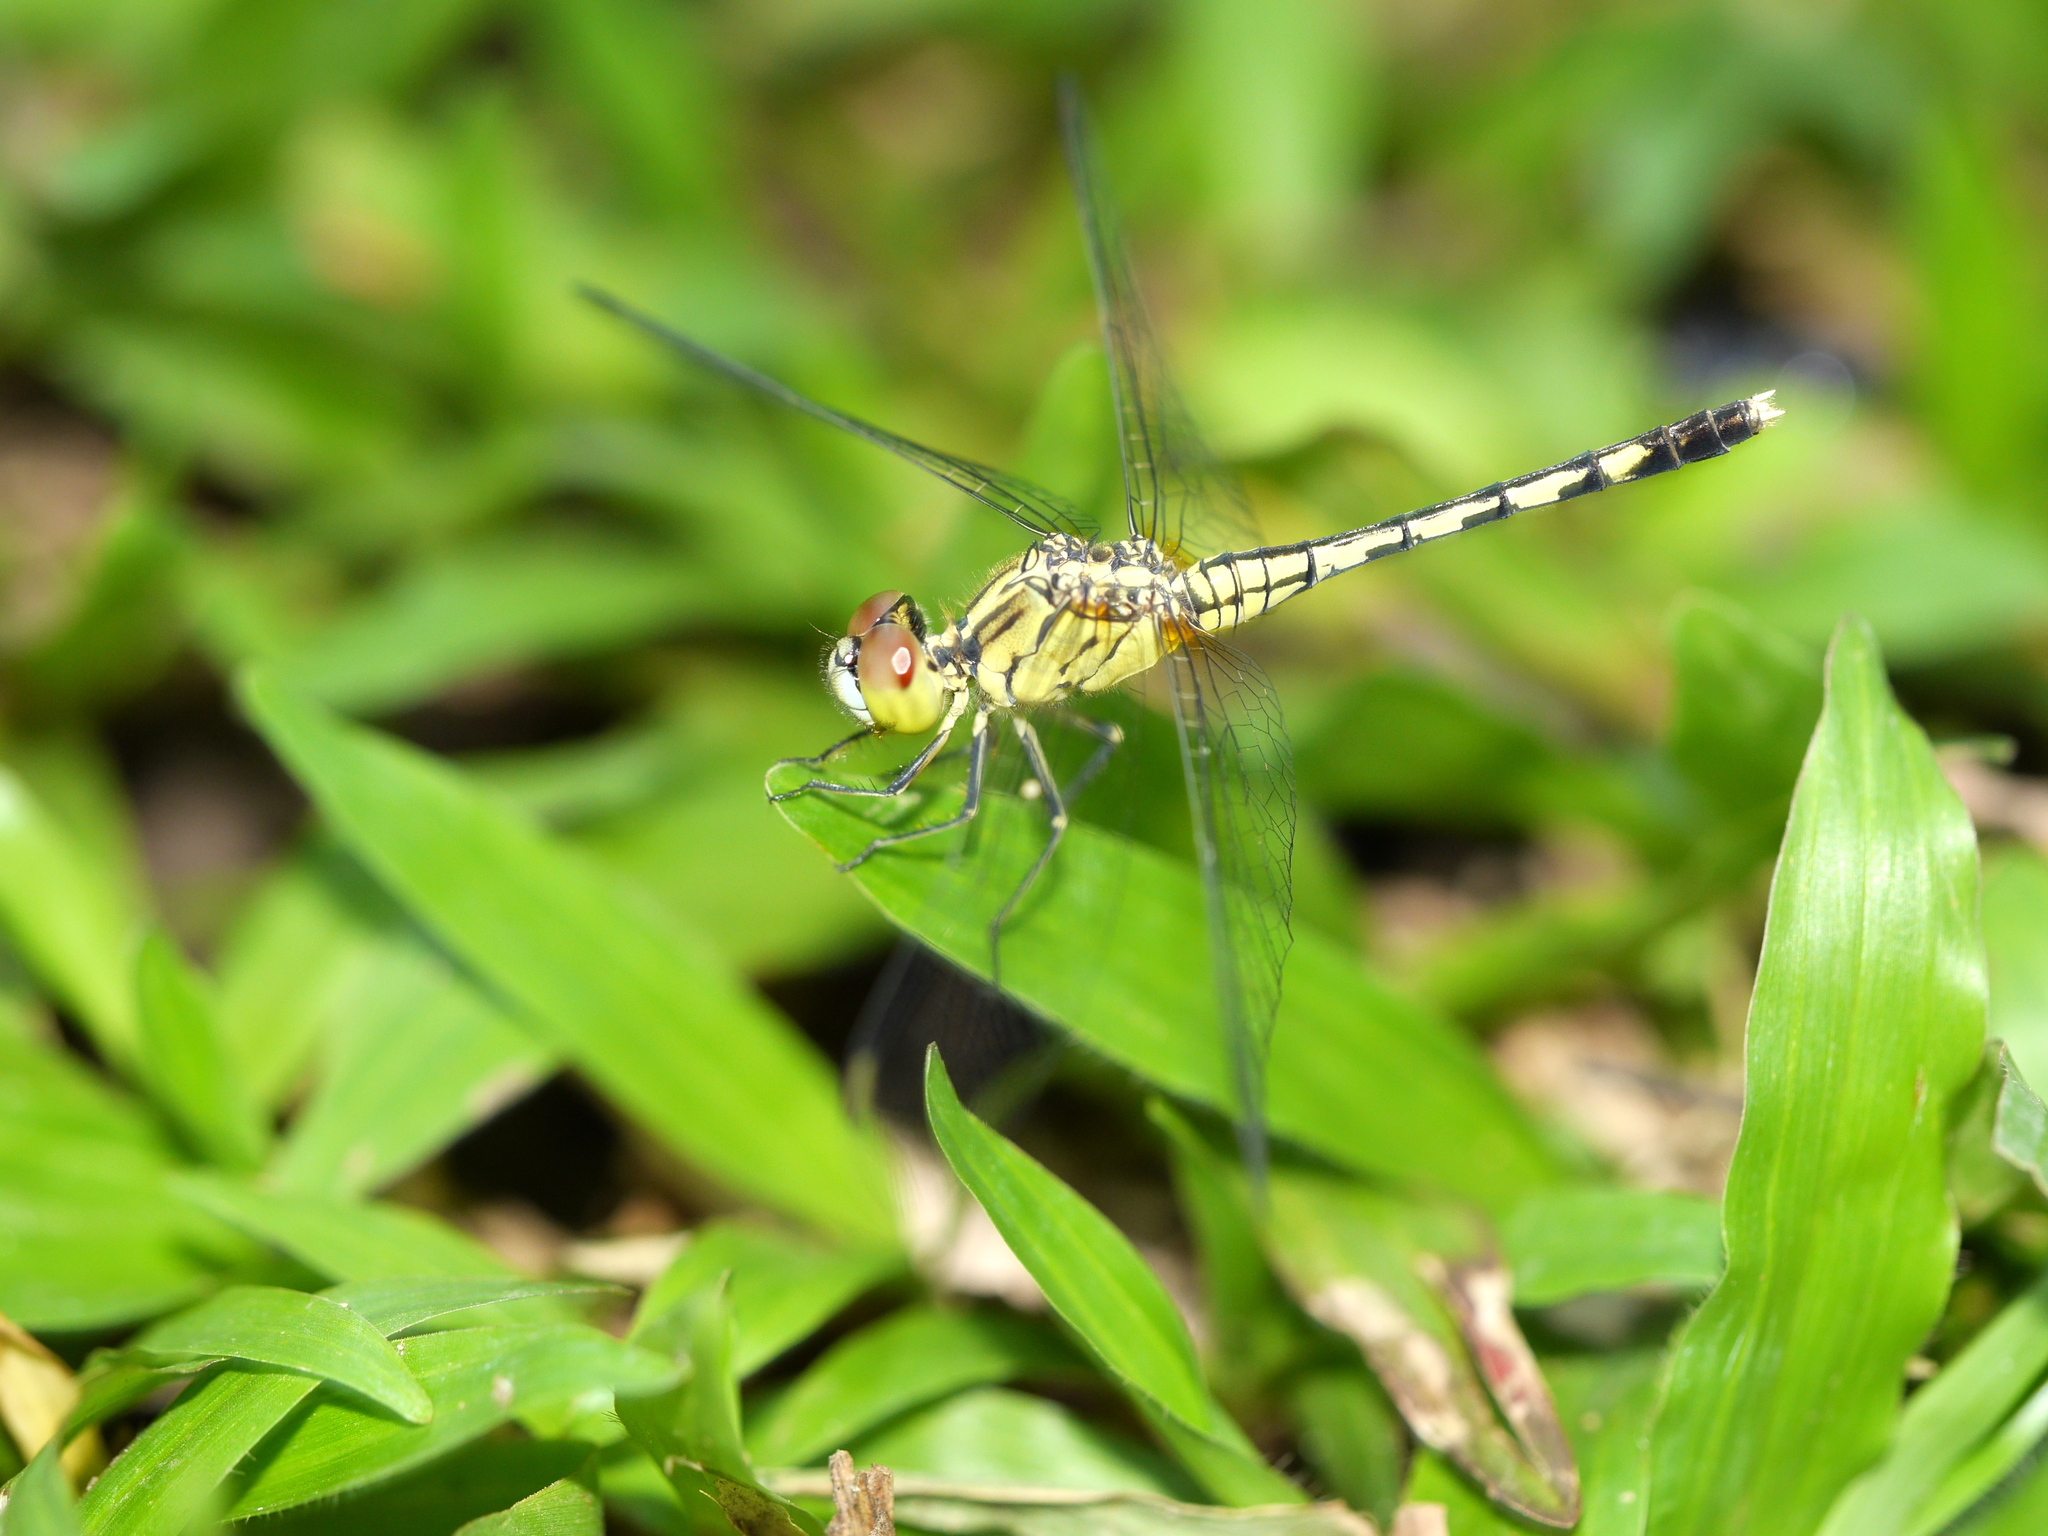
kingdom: Animalia
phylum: Arthropoda
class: Insecta
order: Odonata
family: Libellulidae
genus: Diplacodes
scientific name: Diplacodes trivialis
